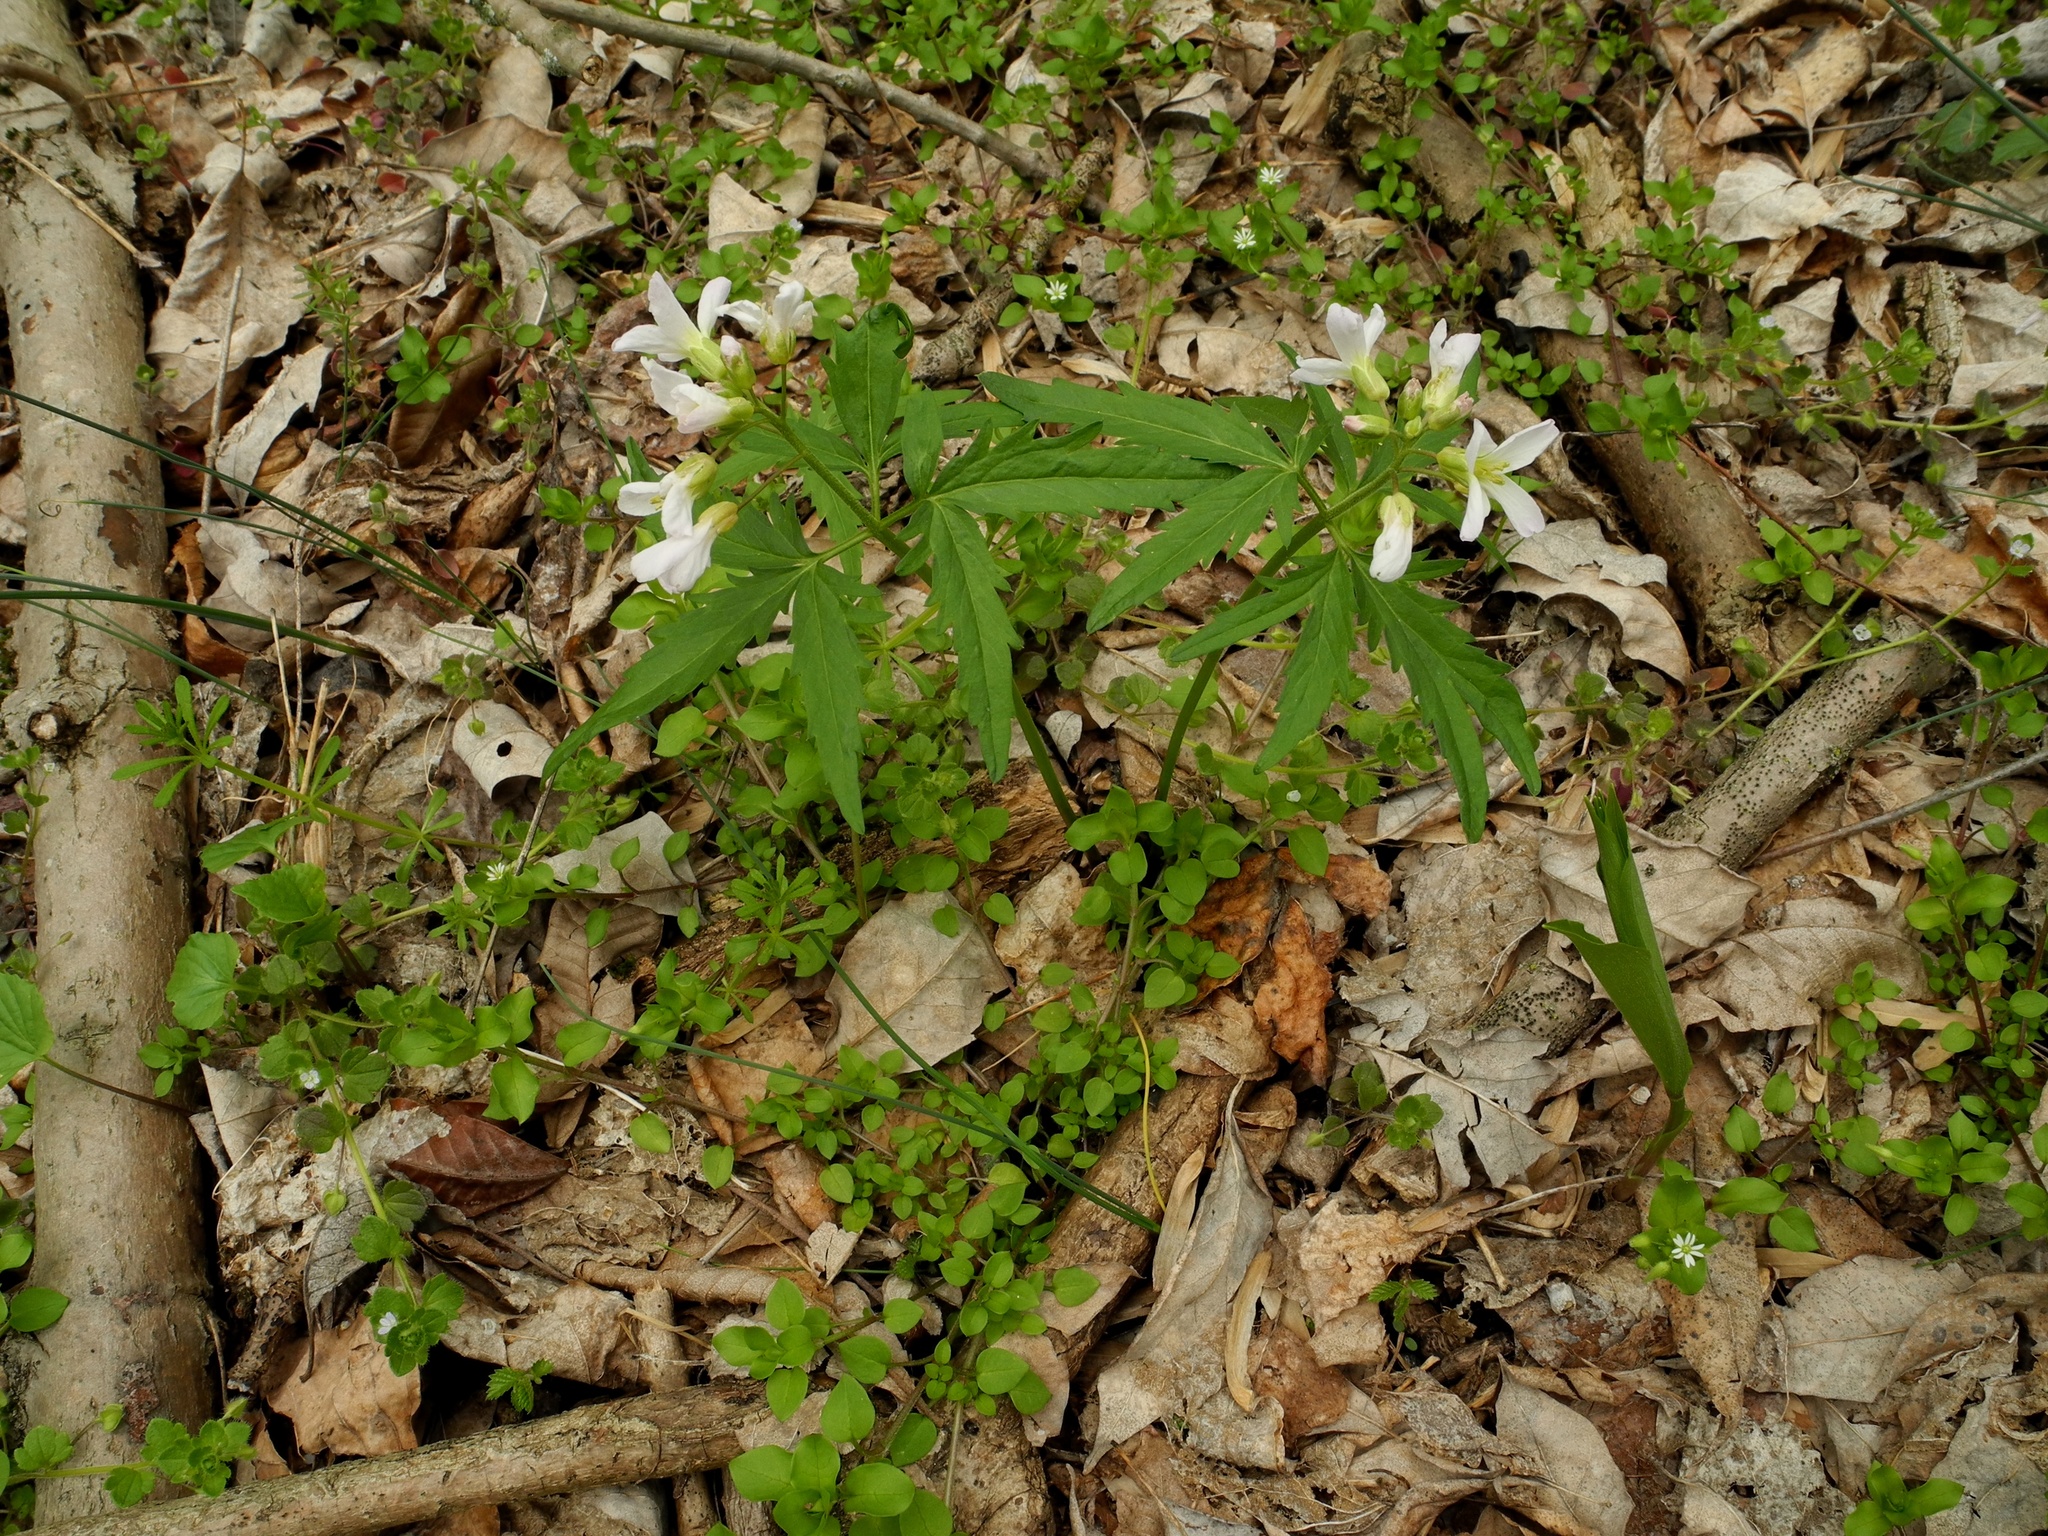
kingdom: Plantae
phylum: Tracheophyta
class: Magnoliopsida
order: Brassicales
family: Brassicaceae
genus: Cardamine
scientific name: Cardamine concatenata
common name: Cut-leaf toothcup
